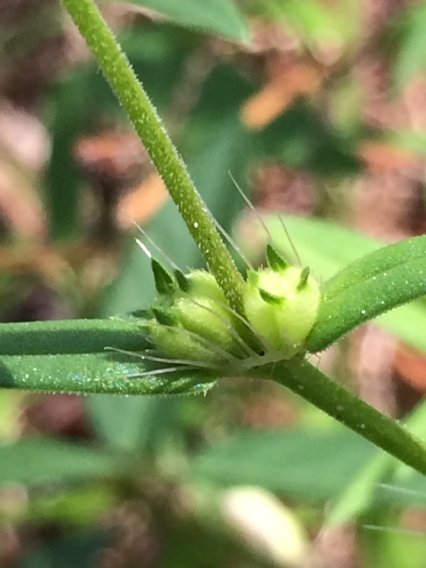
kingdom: Plantae
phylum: Tracheophyta
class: Magnoliopsida
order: Gentianales
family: Rubiaceae
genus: Hexasepalum
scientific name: Hexasepalum teres
